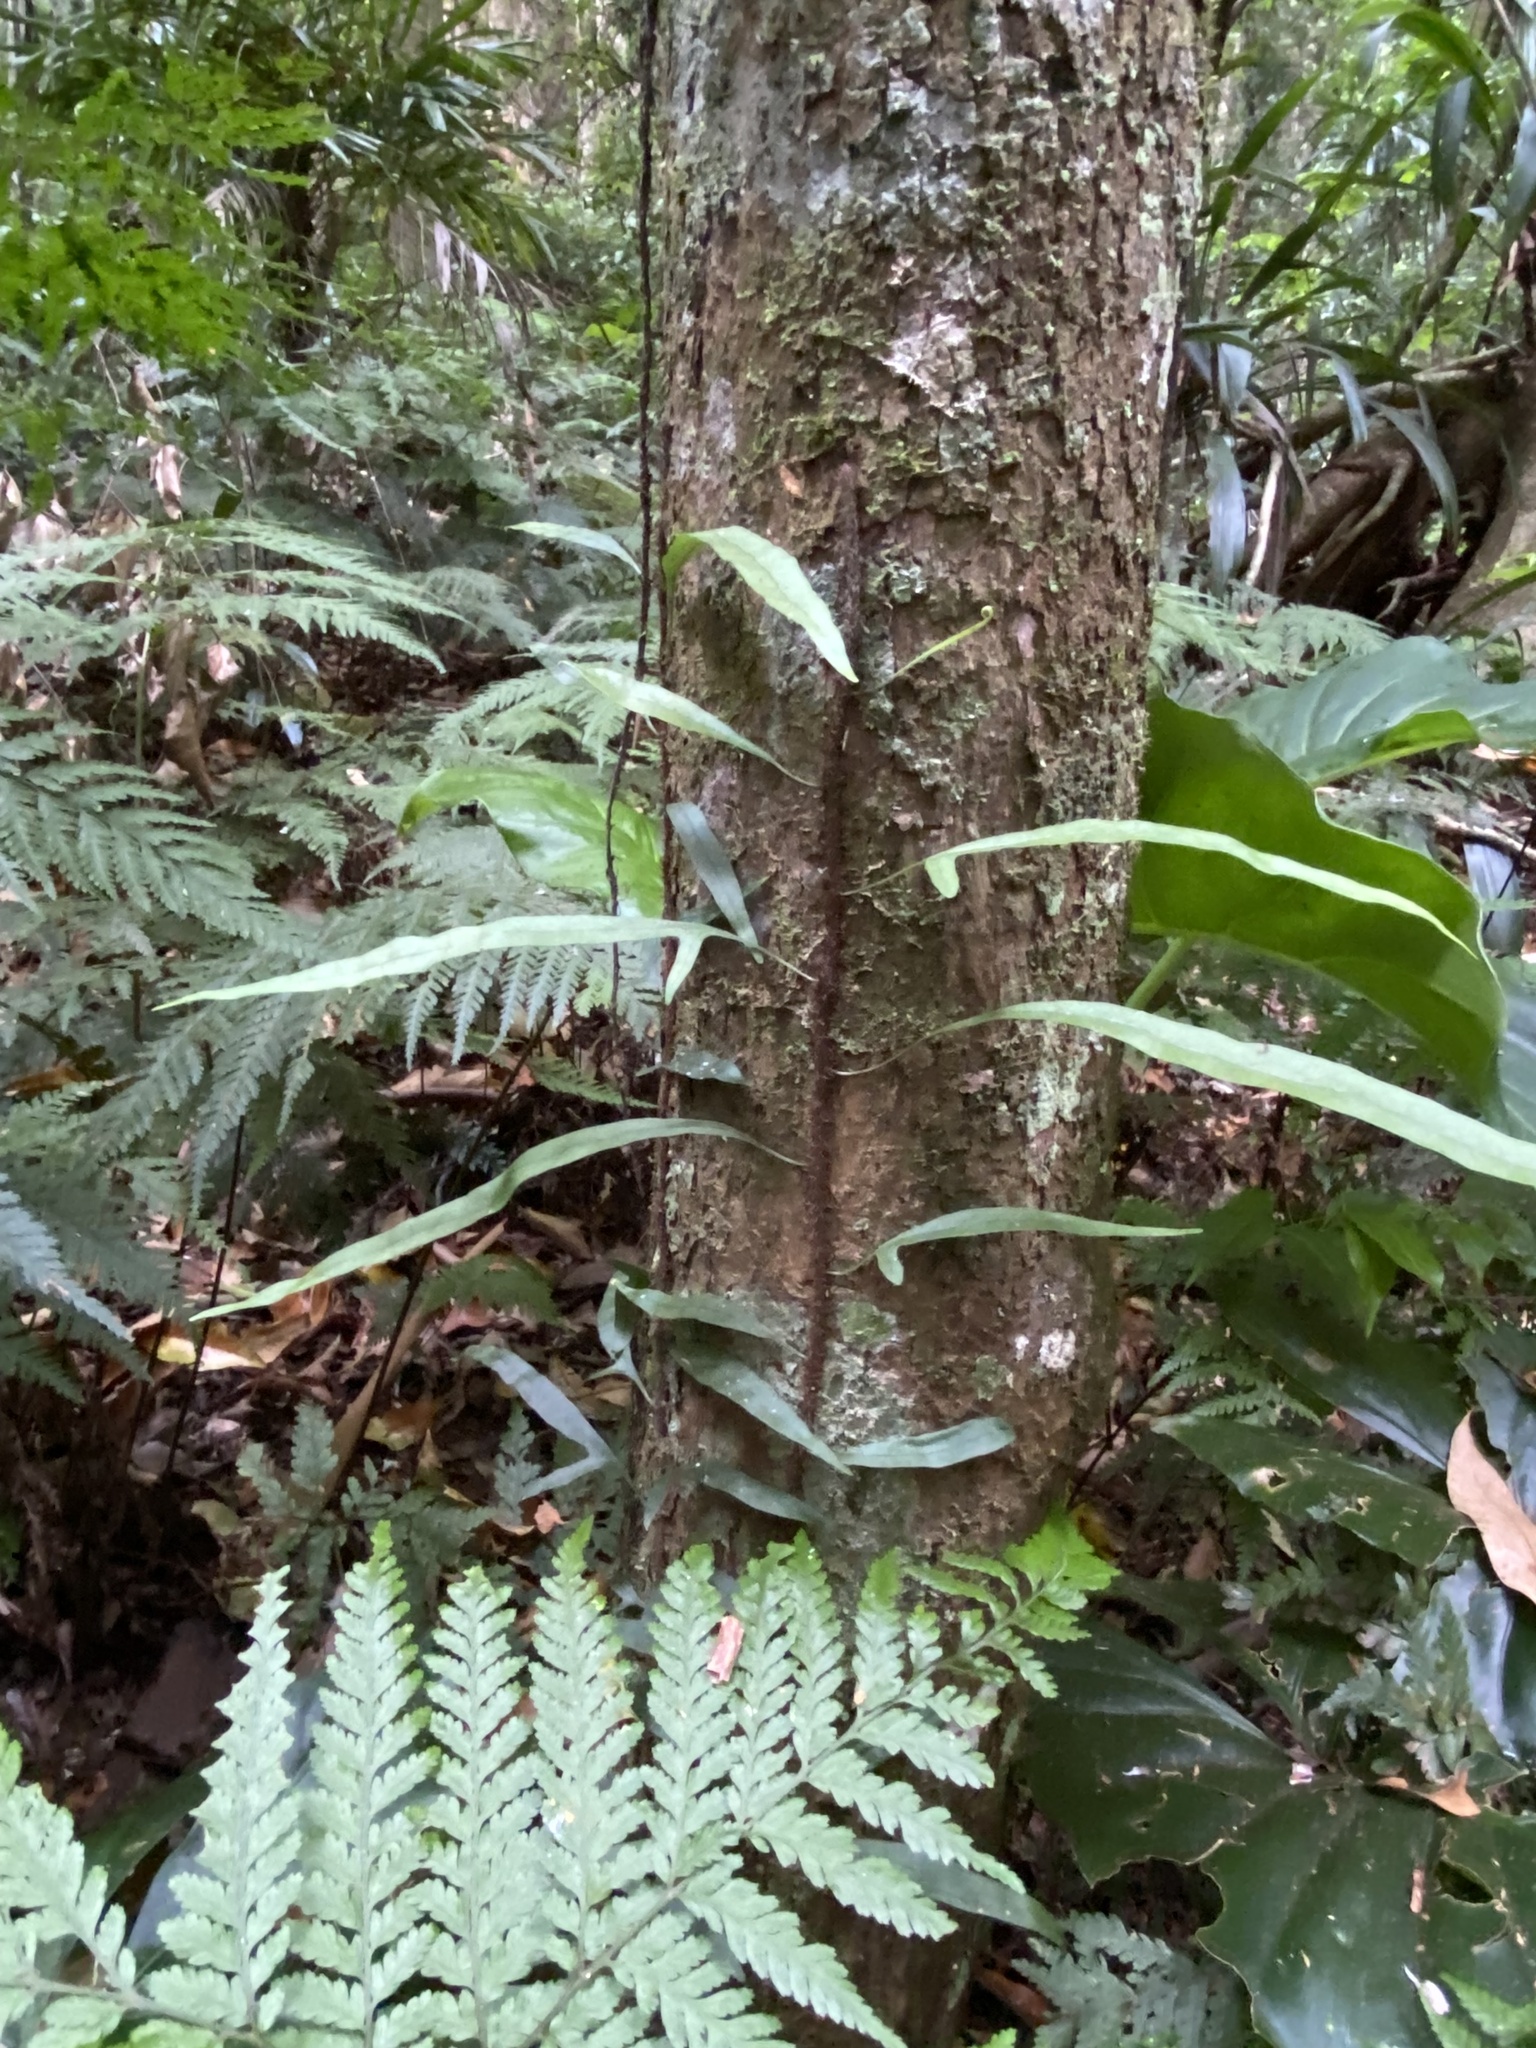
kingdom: Plantae
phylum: Tracheophyta
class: Polypodiopsida
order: Polypodiales
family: Polypodiaceae
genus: Lecanopteris
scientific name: Lecanopteris scandens
